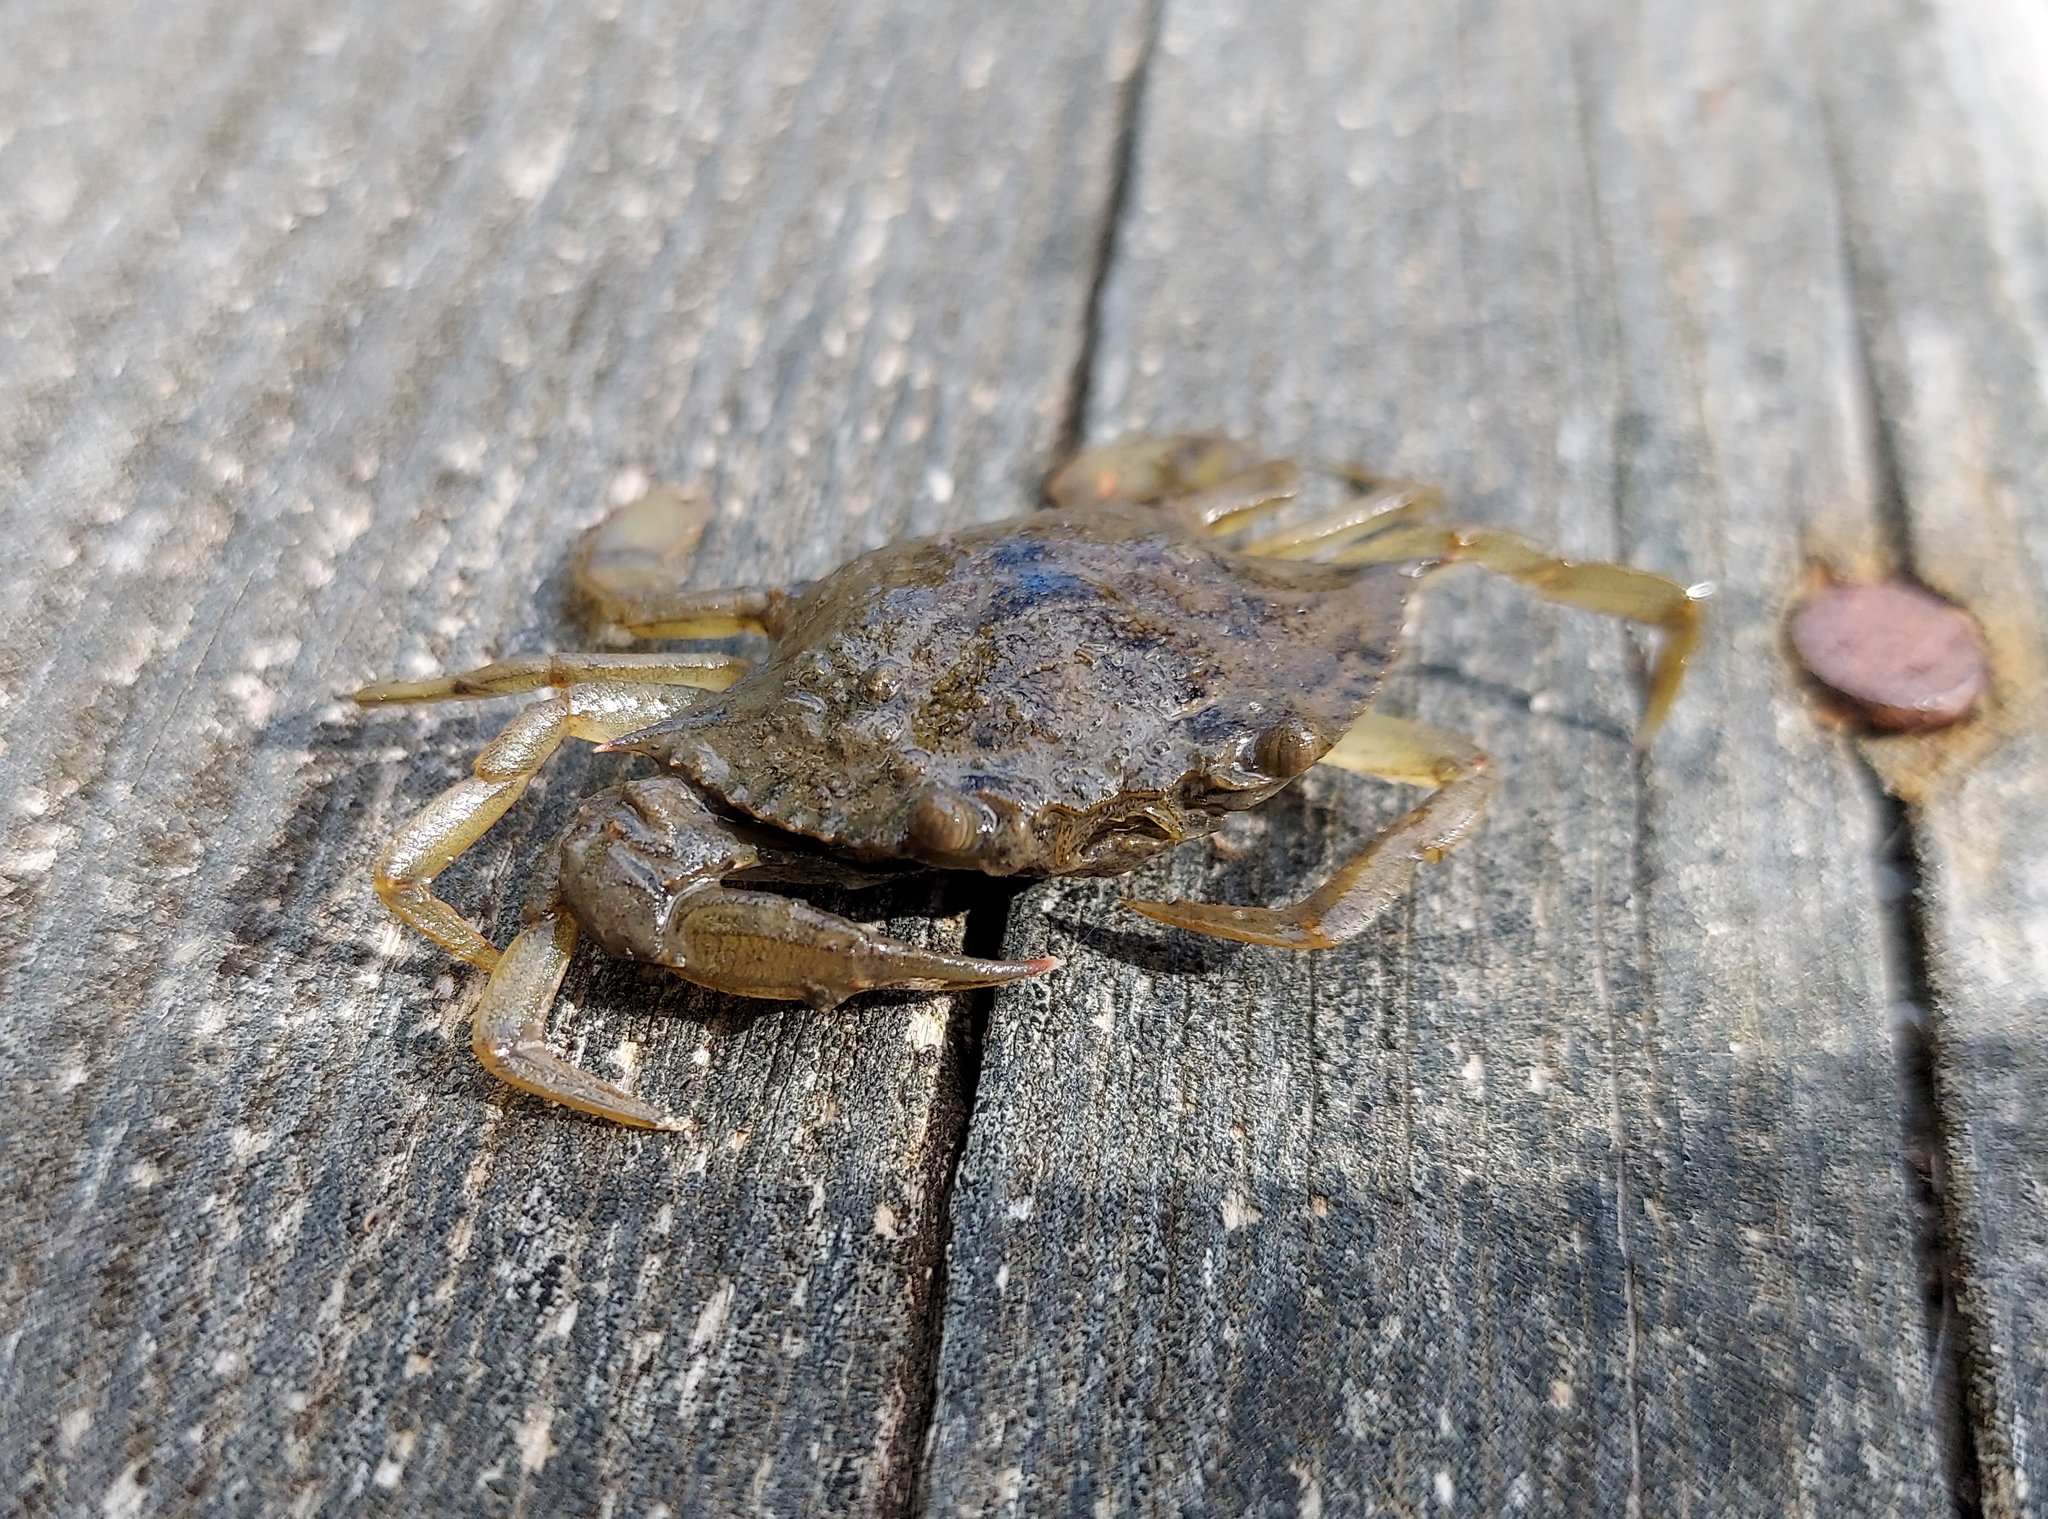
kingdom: Animalia
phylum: Arthropoda
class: Malacostraca
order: Decapoda
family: Portunidae
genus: Callinectes
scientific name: Callinectes sapidus
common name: Blue crab
